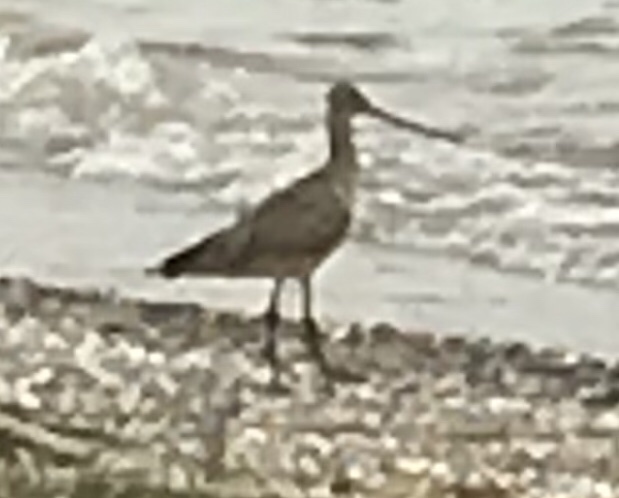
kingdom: Animalia
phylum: Chordata
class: Aves
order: Charadriiformes
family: Scolopacidae
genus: Limosa
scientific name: Limosa fedoa
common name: Marbled godwit
